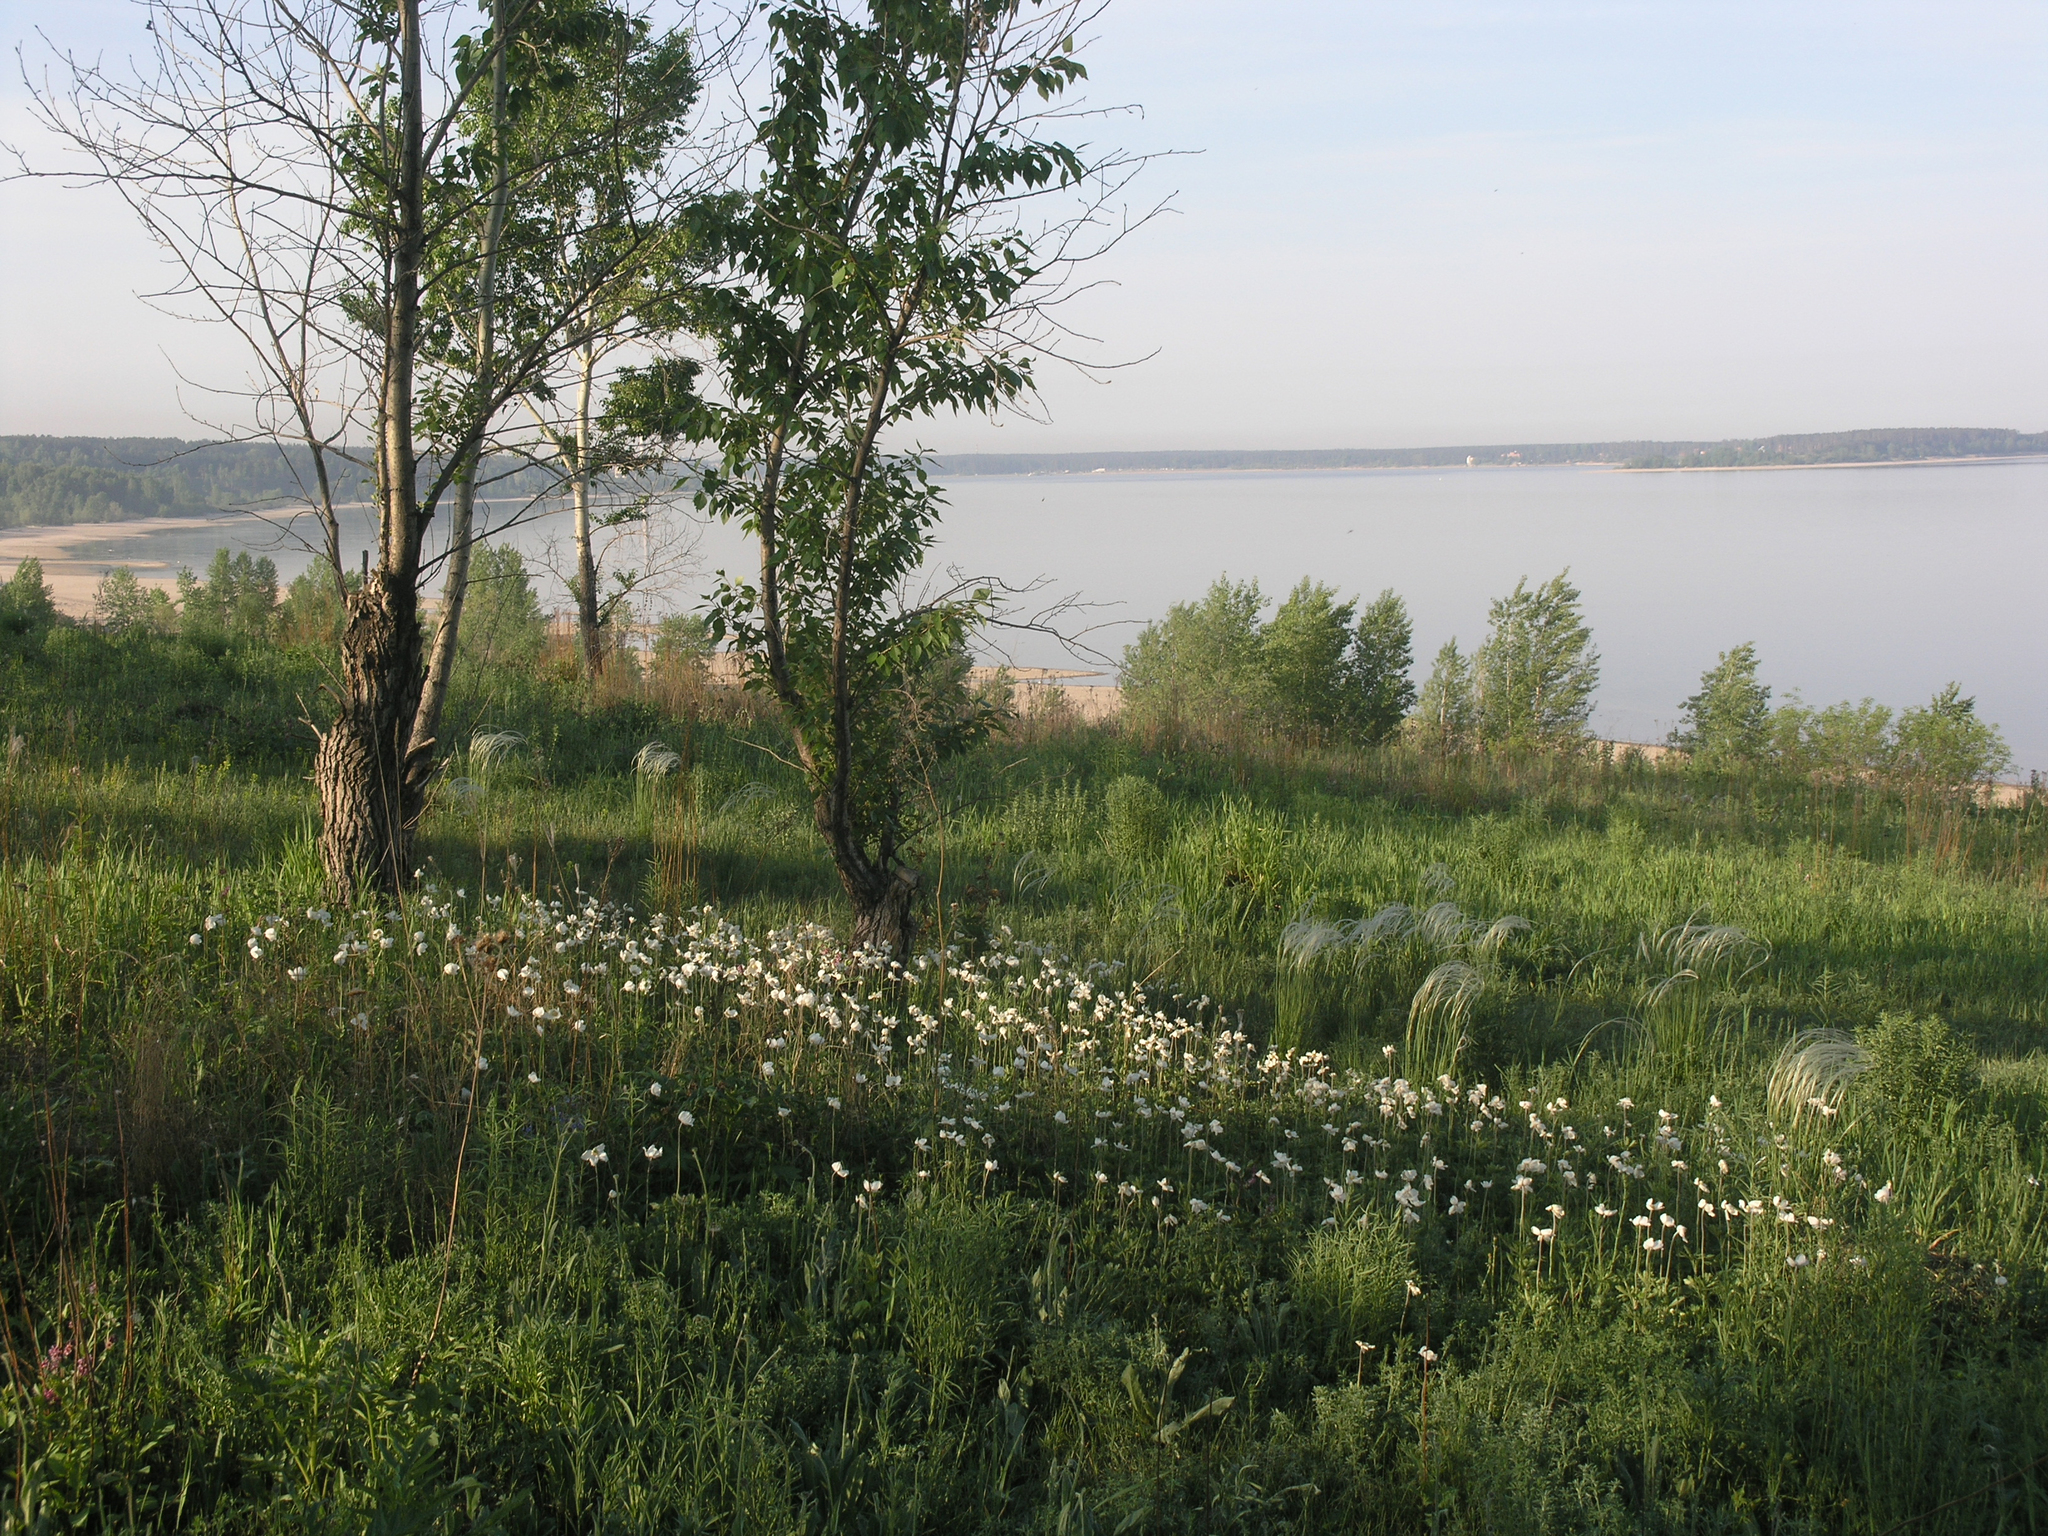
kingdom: Plantae
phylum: Tracheophyta
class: Magnoliopsida
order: Ranunculales
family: Ranunculaceae
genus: Anemone
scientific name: Anemone sylvestris
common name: Snowdrop anemone
